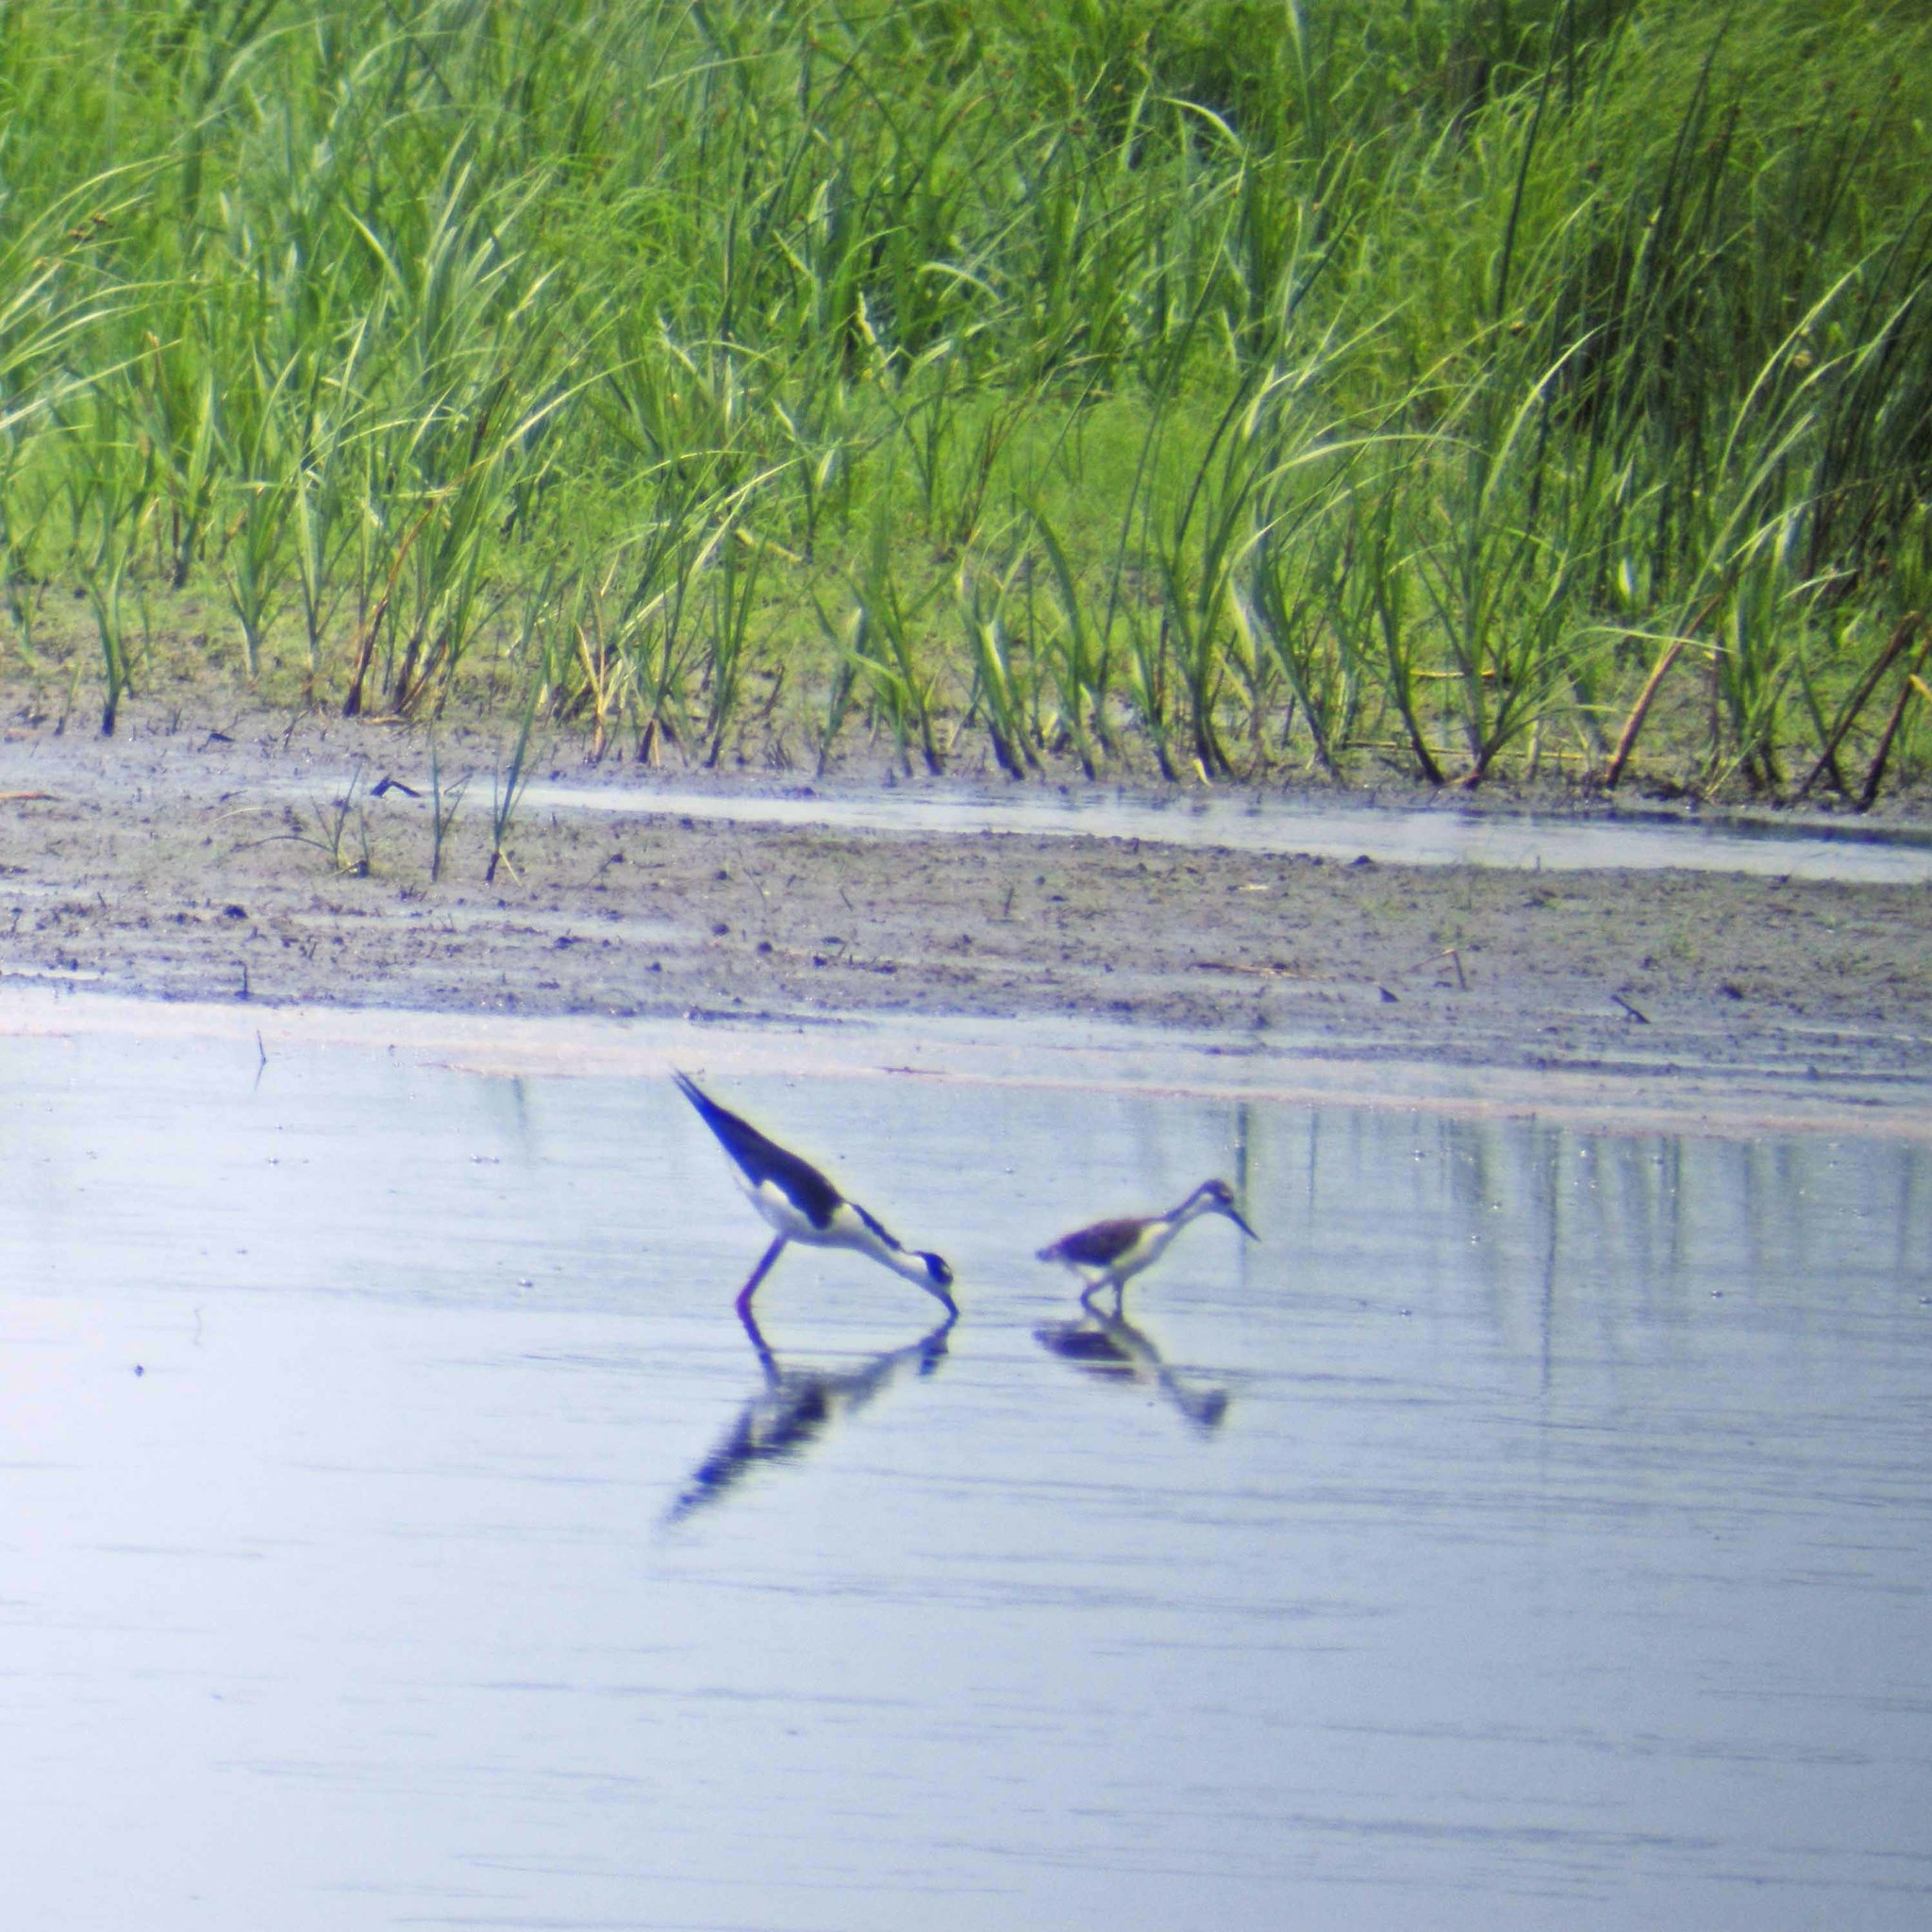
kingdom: Animalia
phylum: Chordata
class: Aves
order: Charadriiformes
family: Recurvirostridae
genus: Himantopus
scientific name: Himantopus mexicanus
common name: Black-necked stilt
